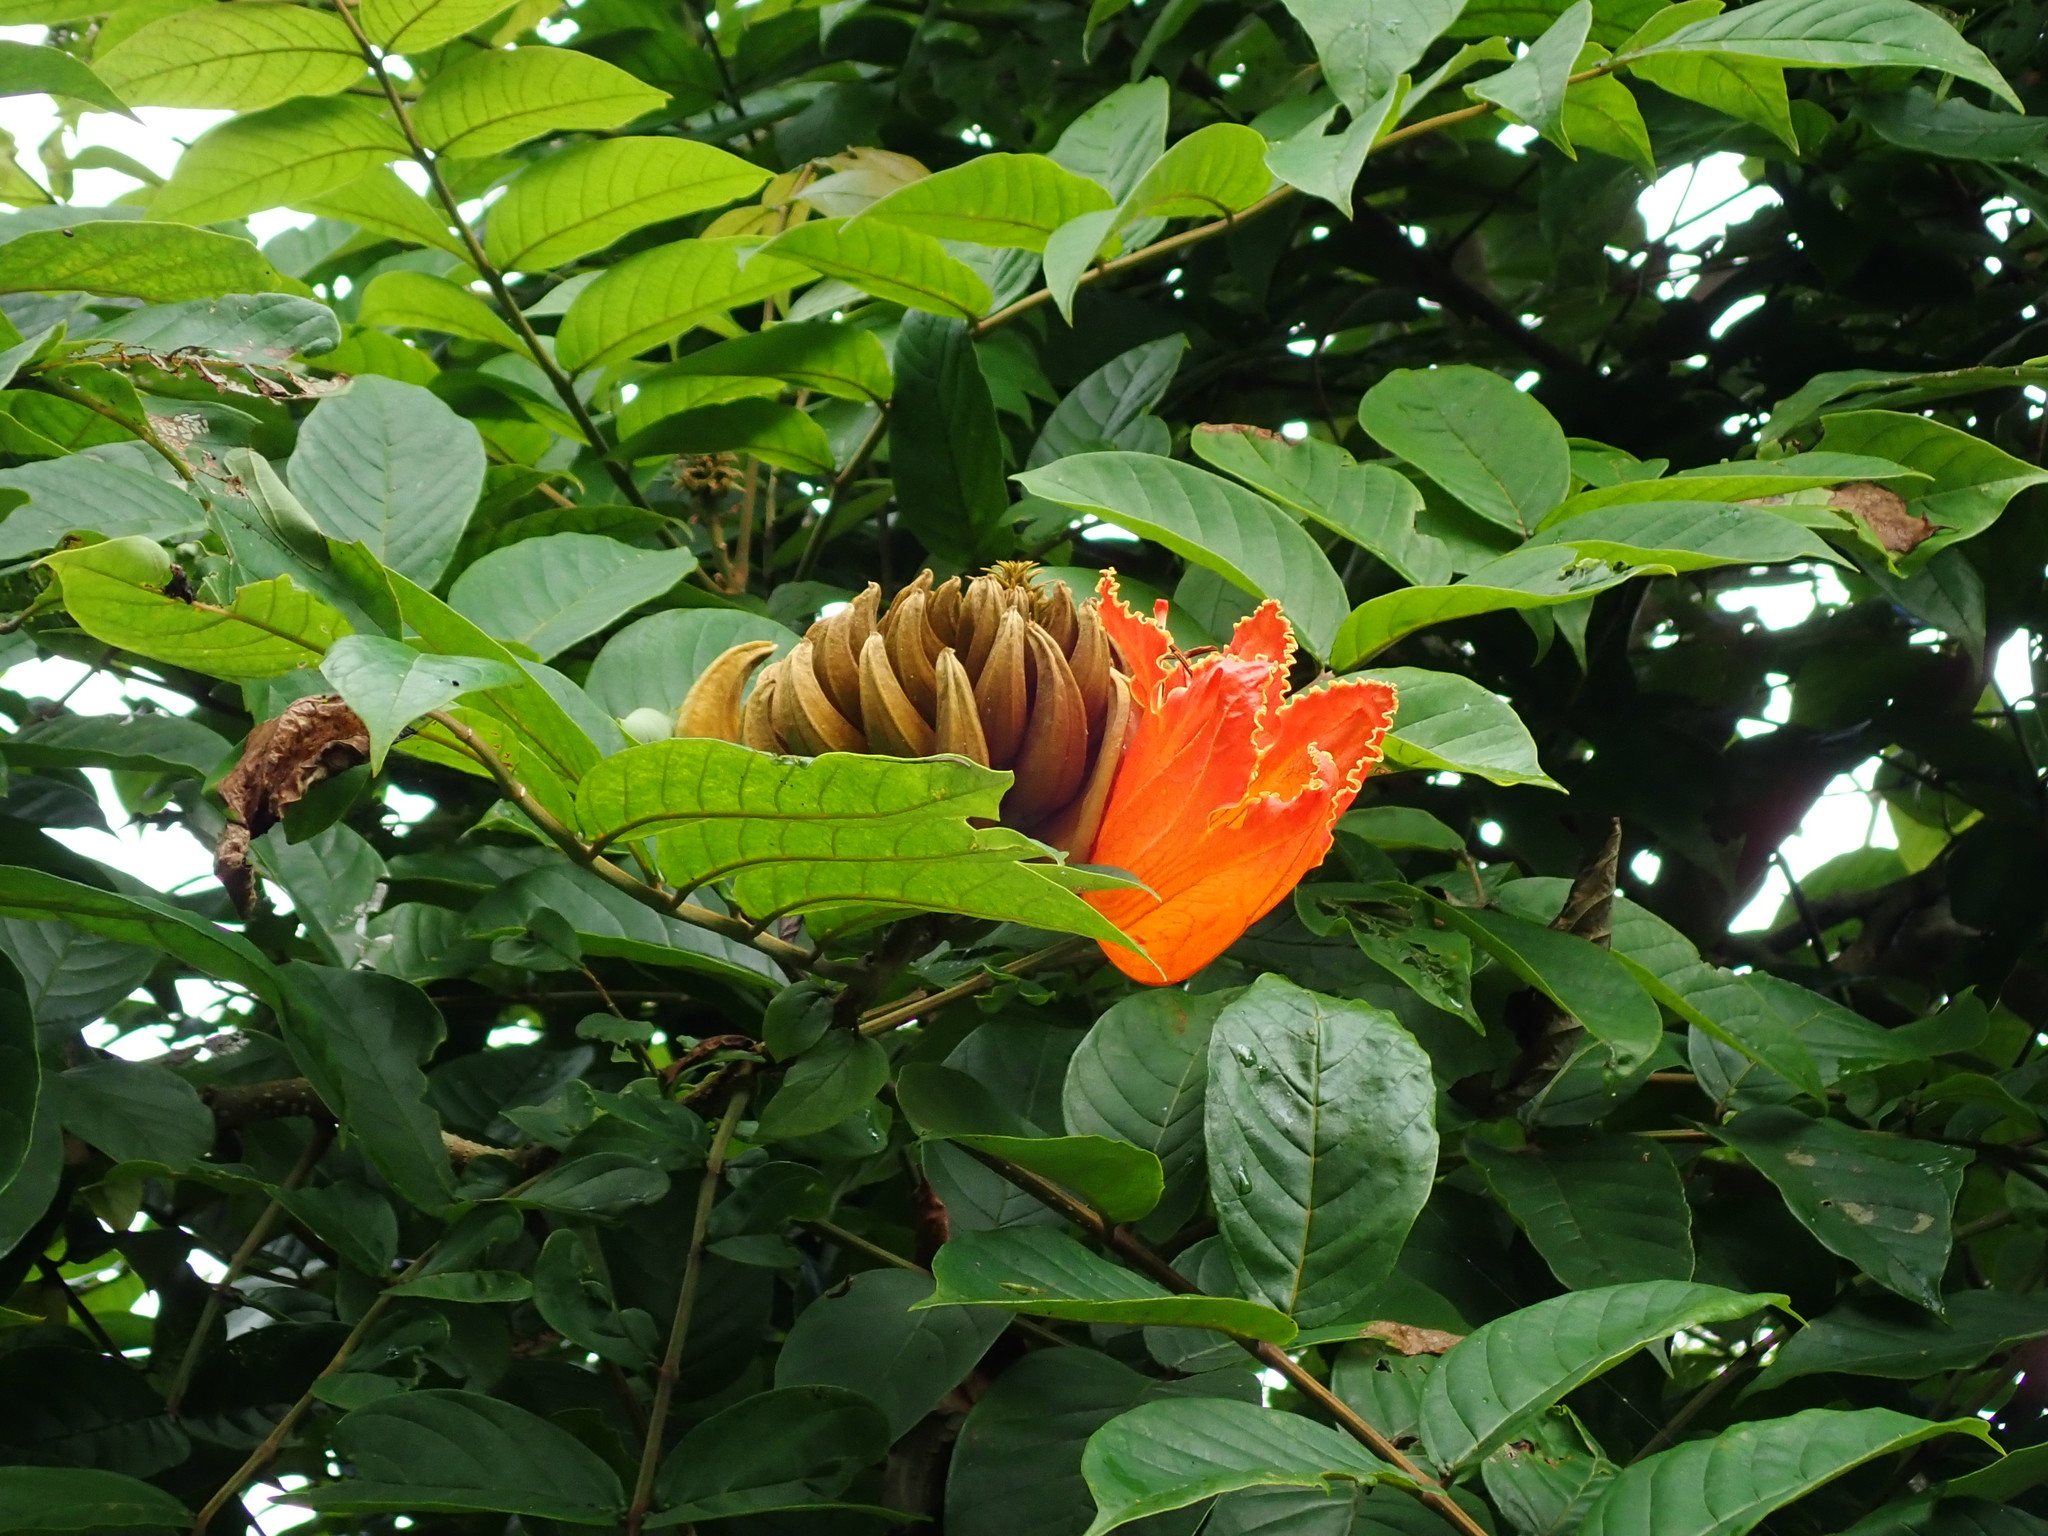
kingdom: Plantae
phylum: Tracheophyta
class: Magnoliopsida
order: Lamiales
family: Bignoniaceae
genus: Spathodea
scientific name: Spathodea campanulata
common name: African tuliptree
